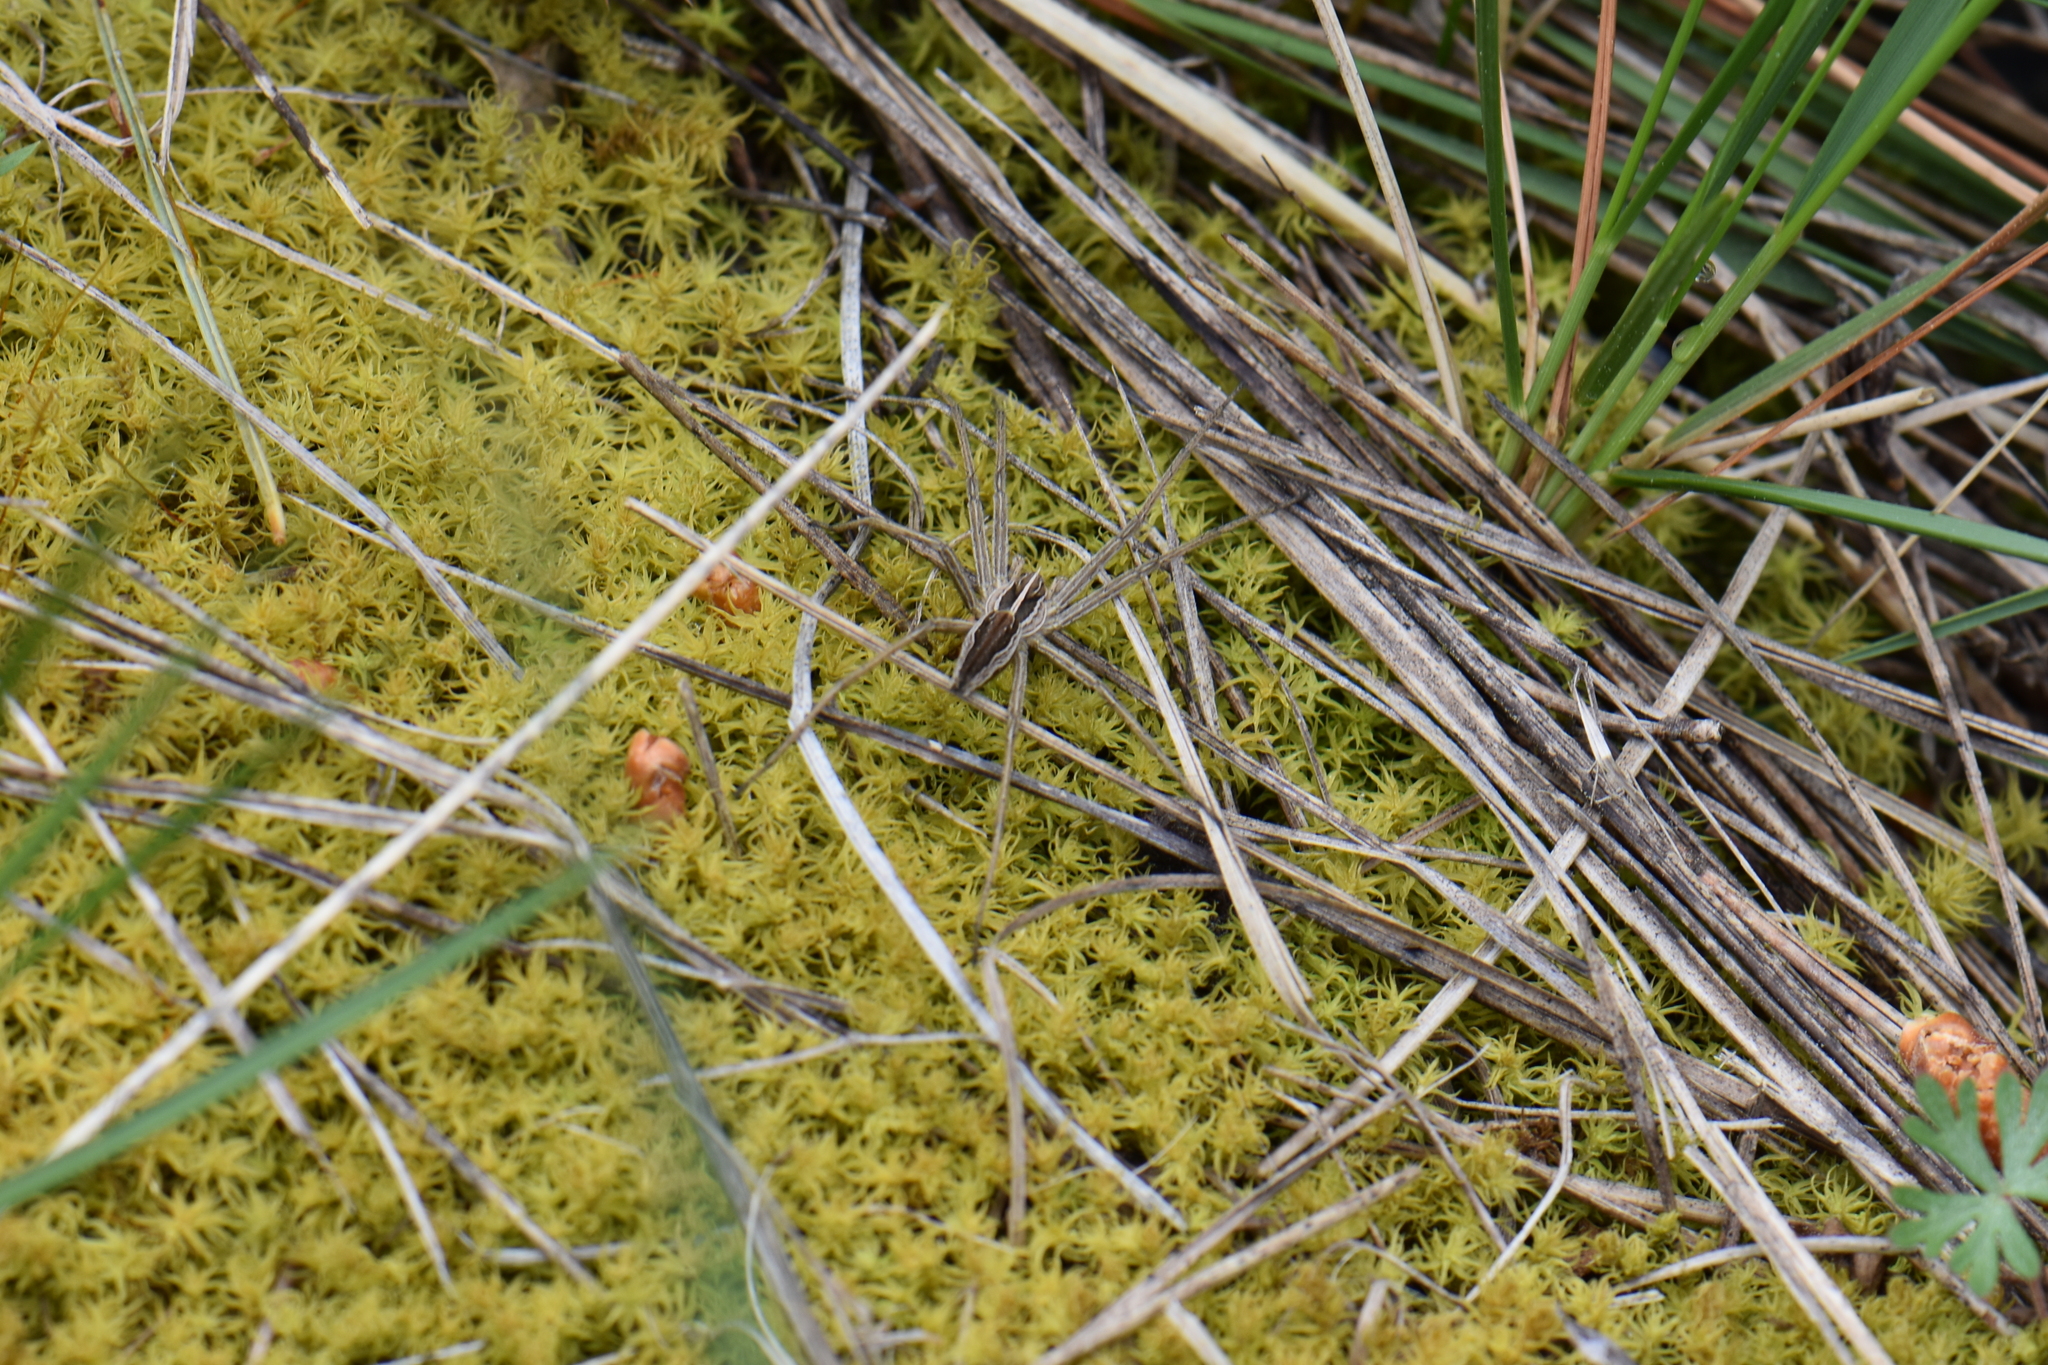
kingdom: Animalia
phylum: Arthropoda
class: Arachnida
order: Araneae
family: Pisauridae
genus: Pisaura
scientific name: Pisaura
